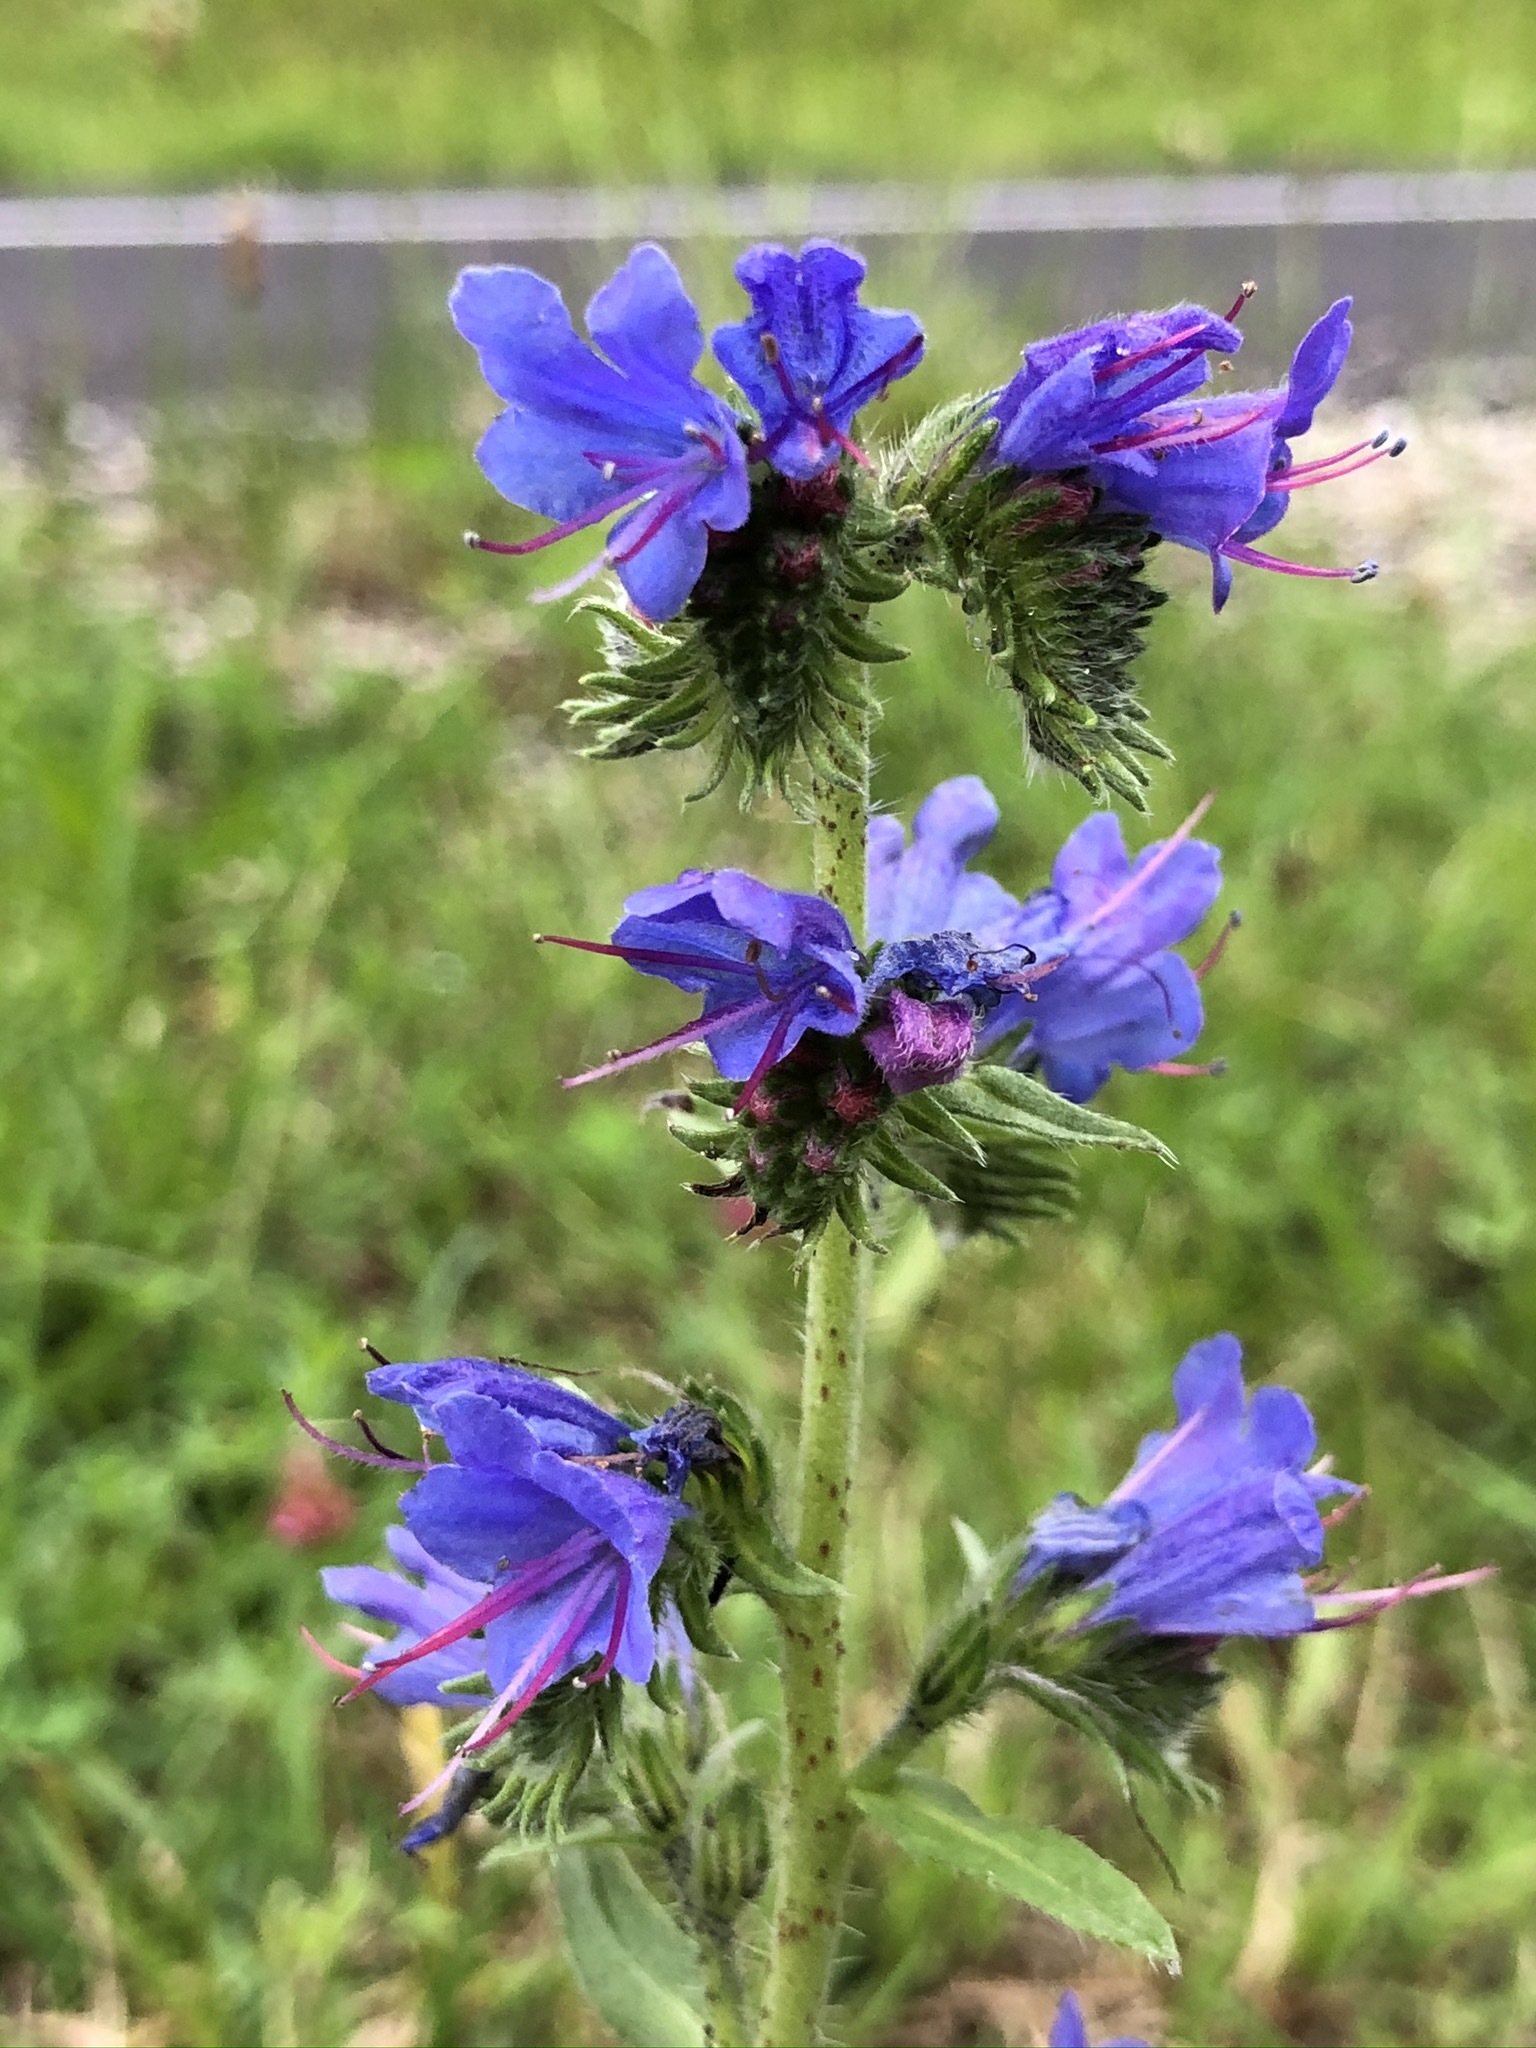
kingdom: Plantae
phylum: Tracheophyta
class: Magnoliopsida
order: Boraginales
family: Boraginaceae
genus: Echium
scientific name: Echium vulgare
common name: Common viper's bugloss
